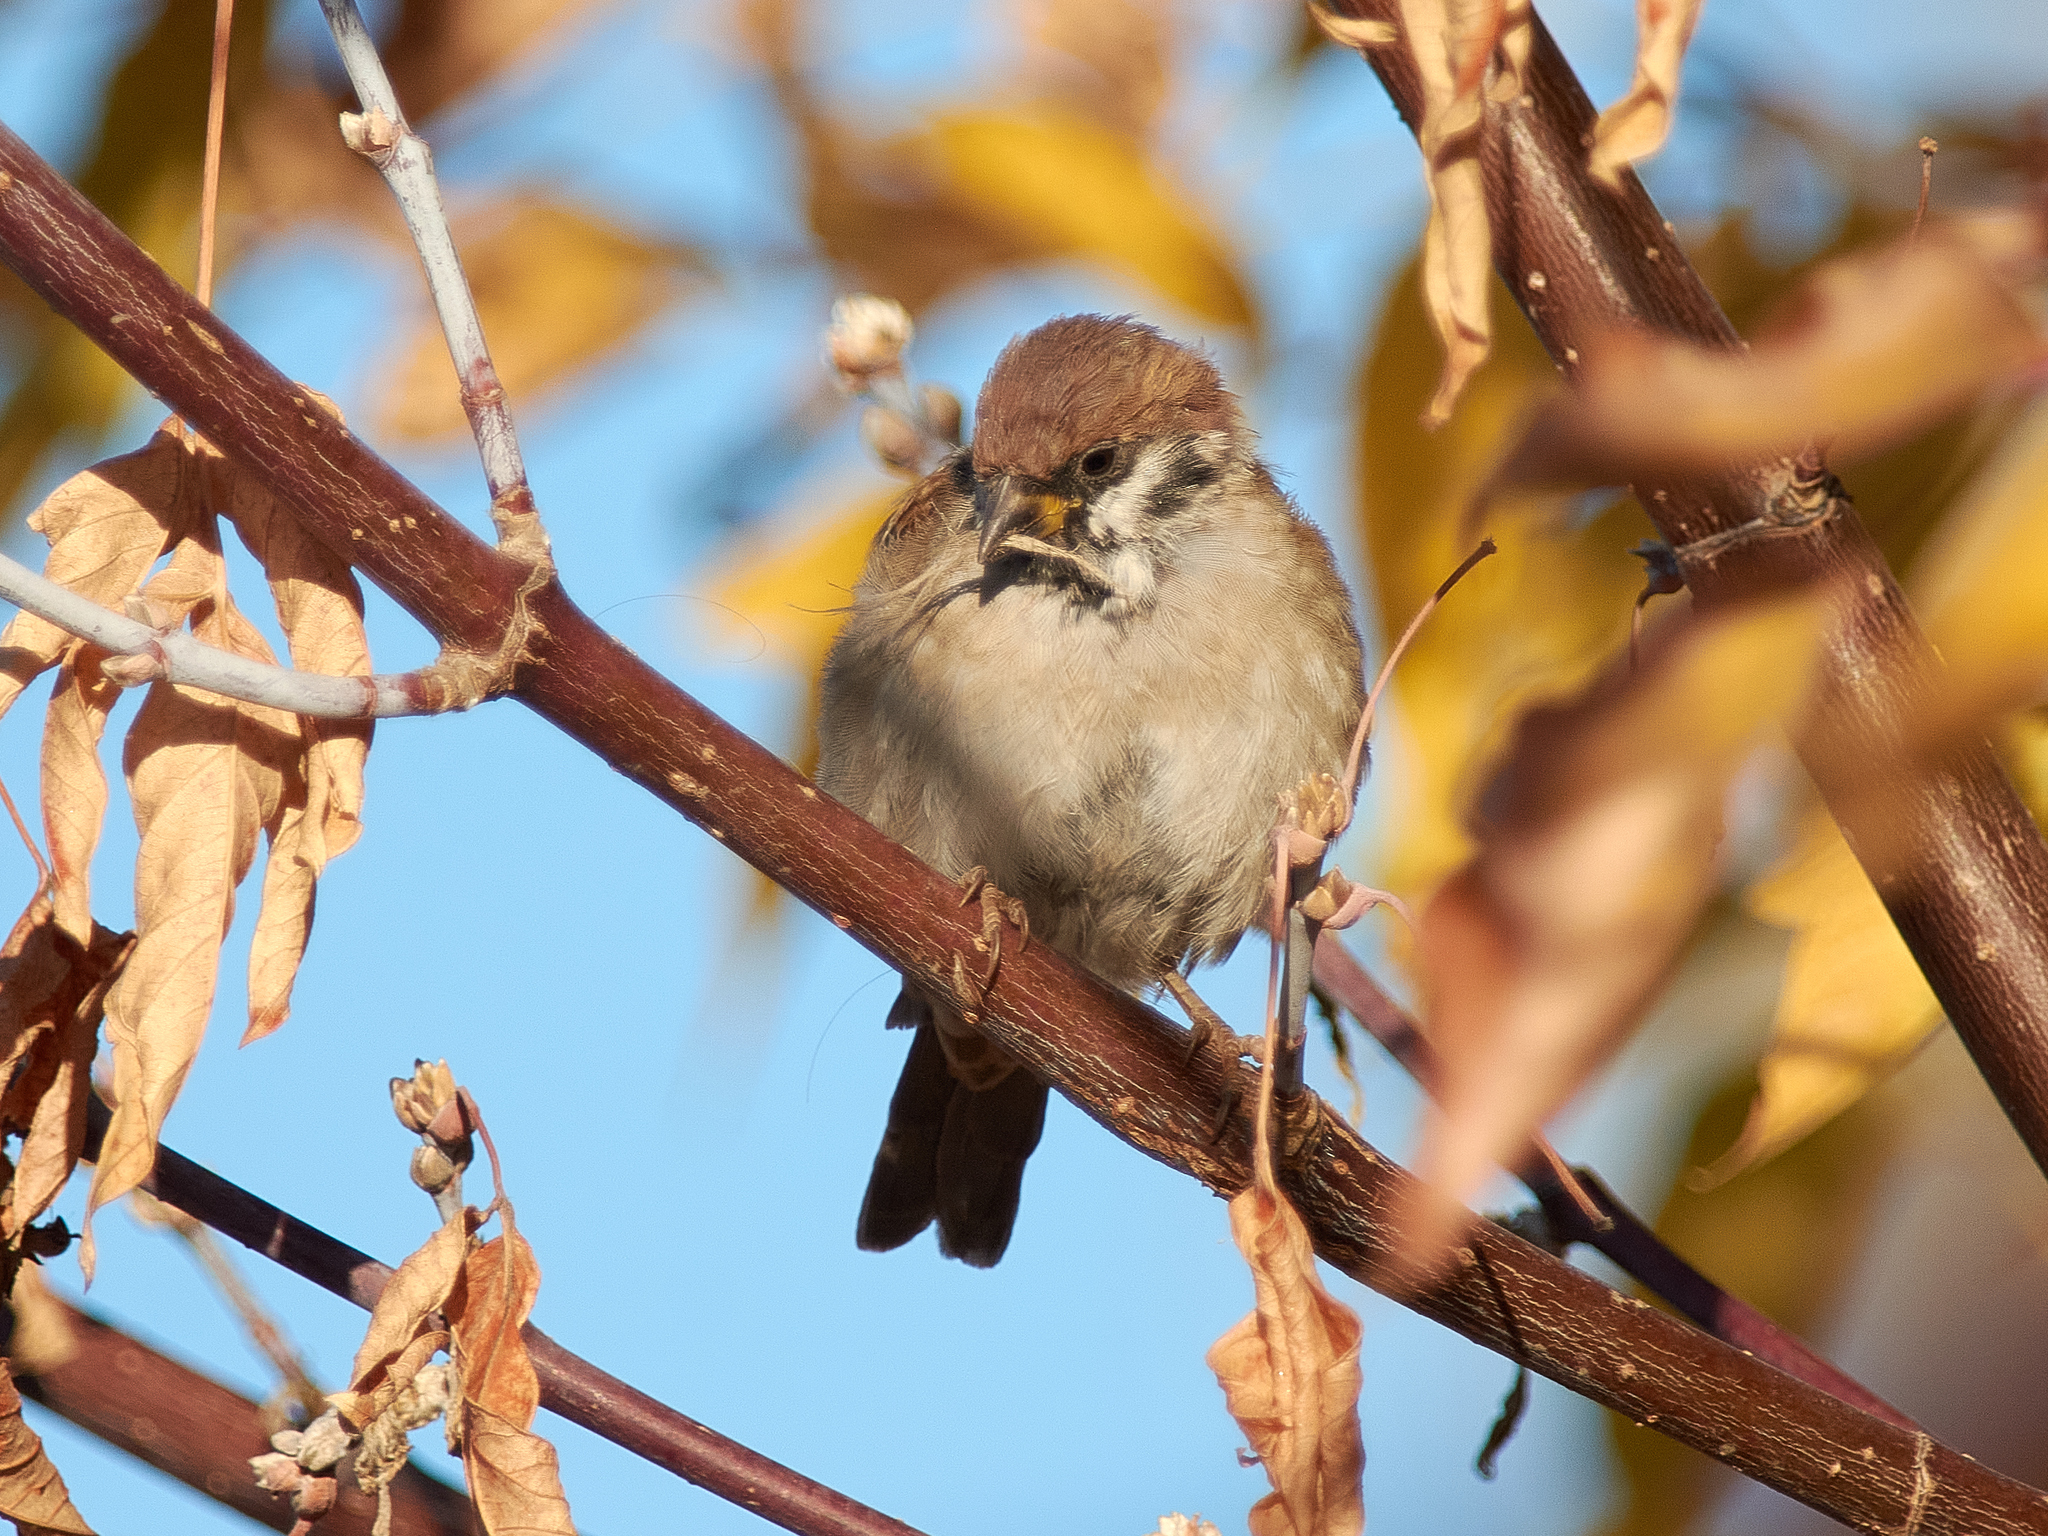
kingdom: Animalia
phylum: Chordata
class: Aves
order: Passeriformes
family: Passeridae
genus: Passer
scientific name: Passer montanus
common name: Eurasian tree sparrow
